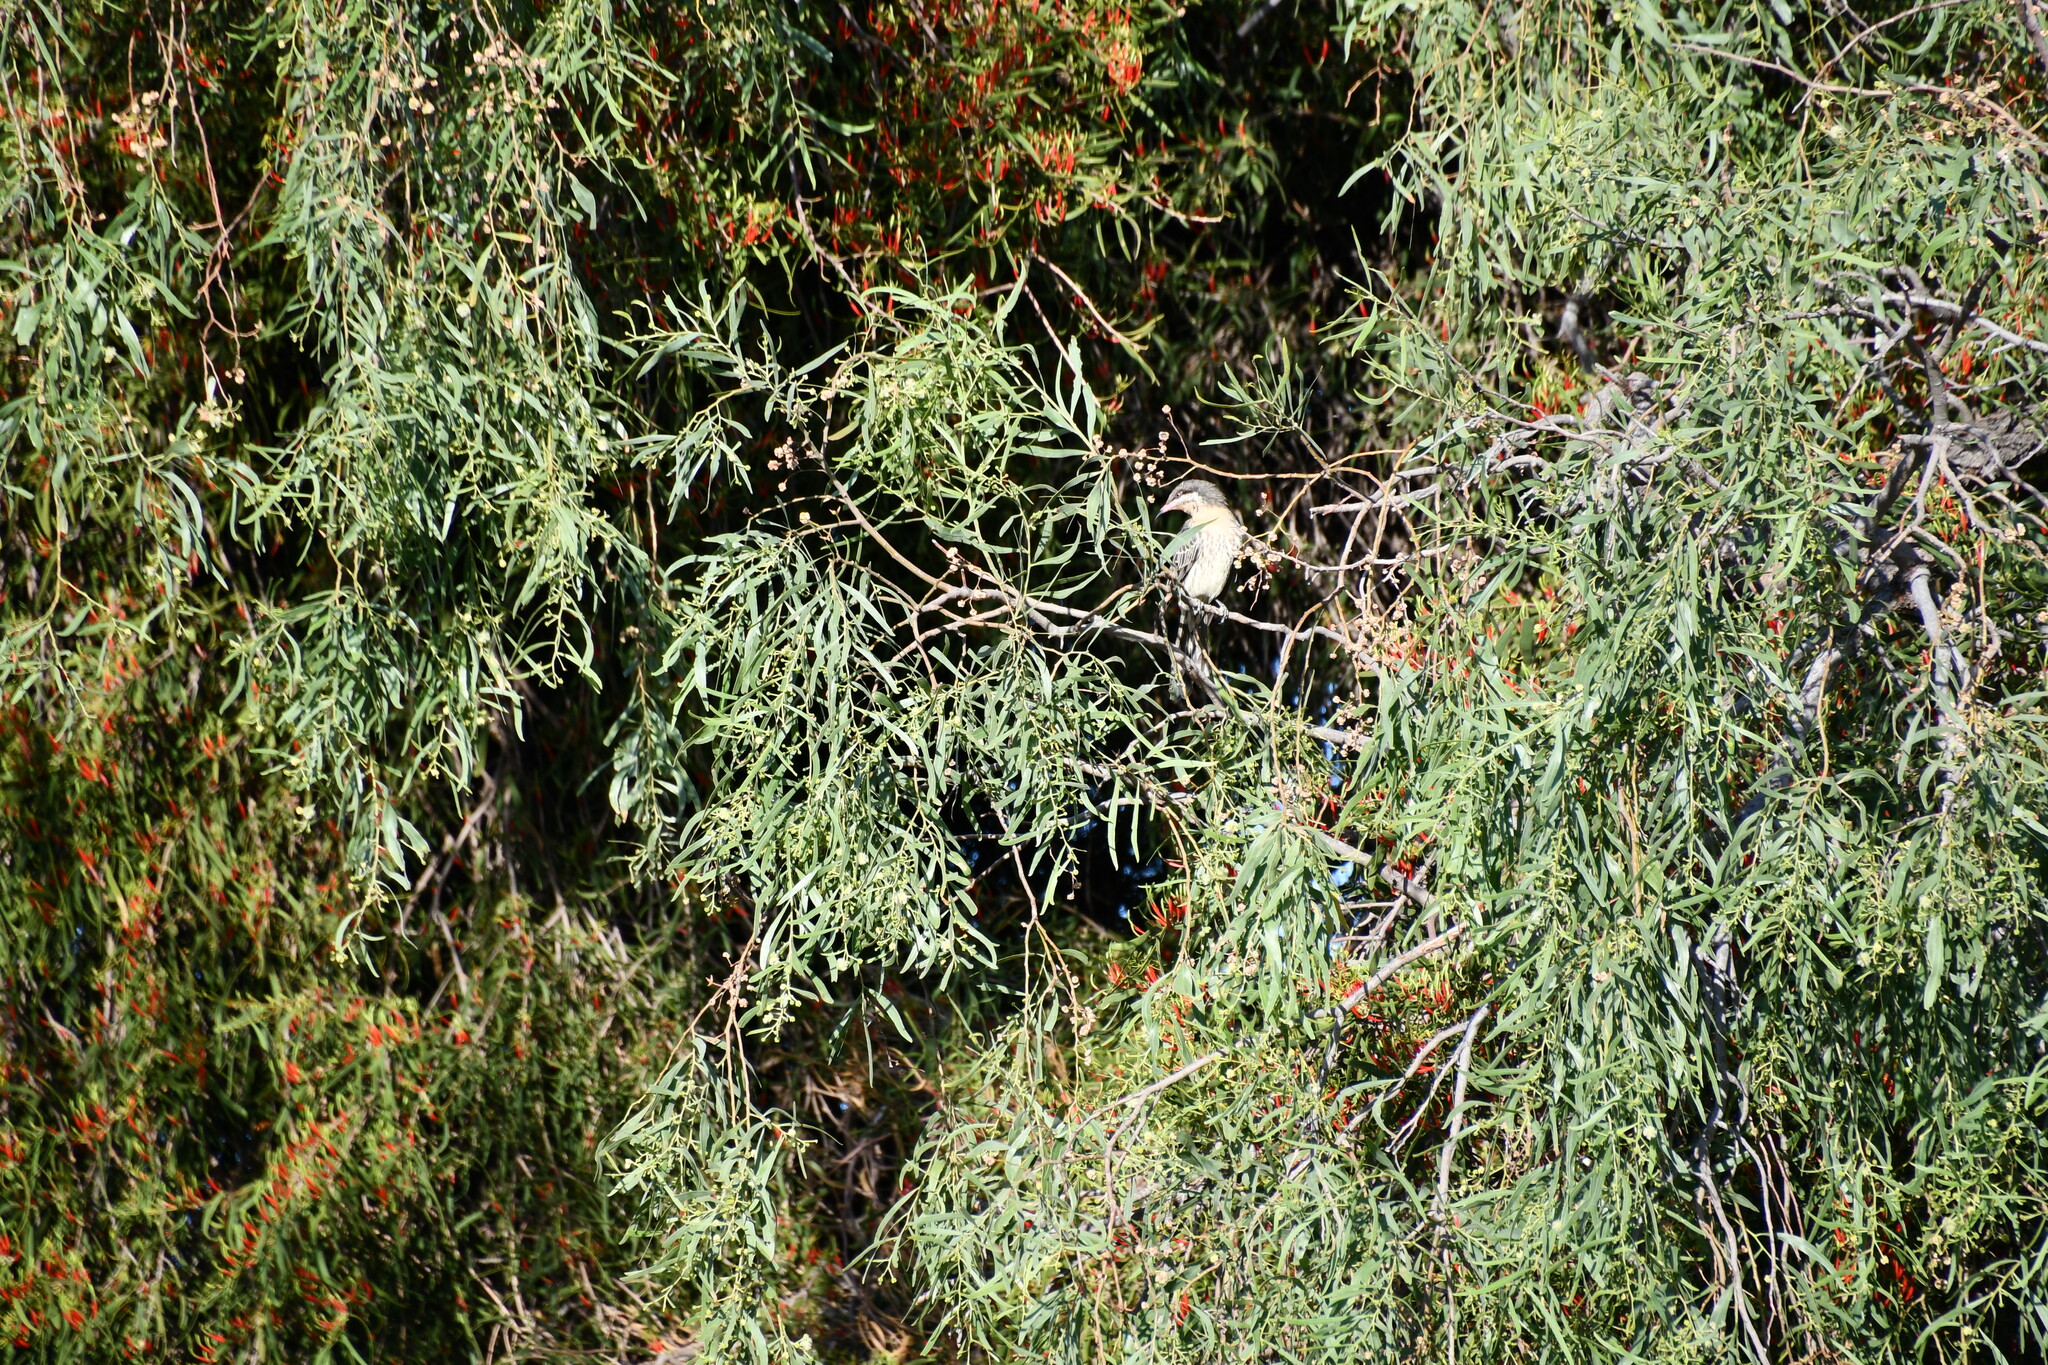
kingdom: Animalia
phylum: Chordata
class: Aves
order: Passeriformes
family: Meliphagidae
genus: Acanthagenys
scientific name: Acanthagenys rufogularis
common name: Spiny-cheeked honeyeater
